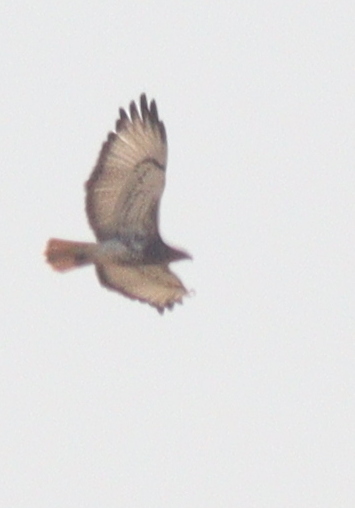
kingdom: Animalia
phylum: Chordata
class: Aves
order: Accipitriformes
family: Accipitridae
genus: Buteo
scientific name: Buteo auguralis
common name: Red-necked buzzard
